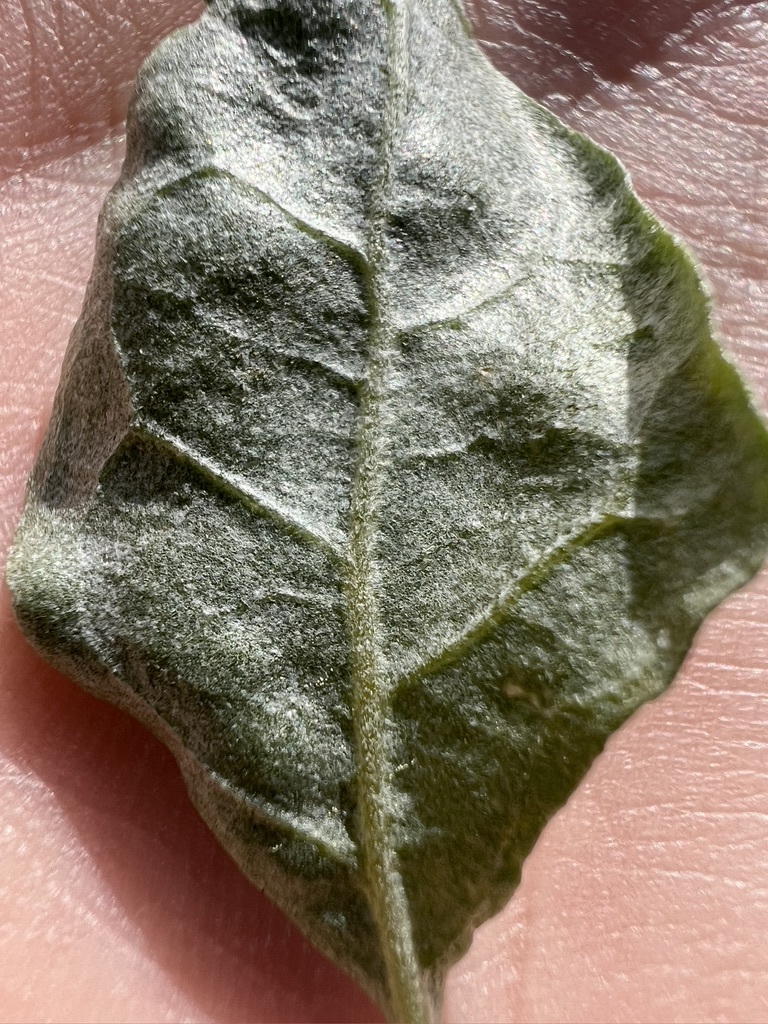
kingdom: Plantae
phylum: Tracheophyta
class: Magnoliopsida
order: Caryophyllales
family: Amaranthaceae
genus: Atriplex
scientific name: Atriplex lentiformis
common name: Big saltbush
